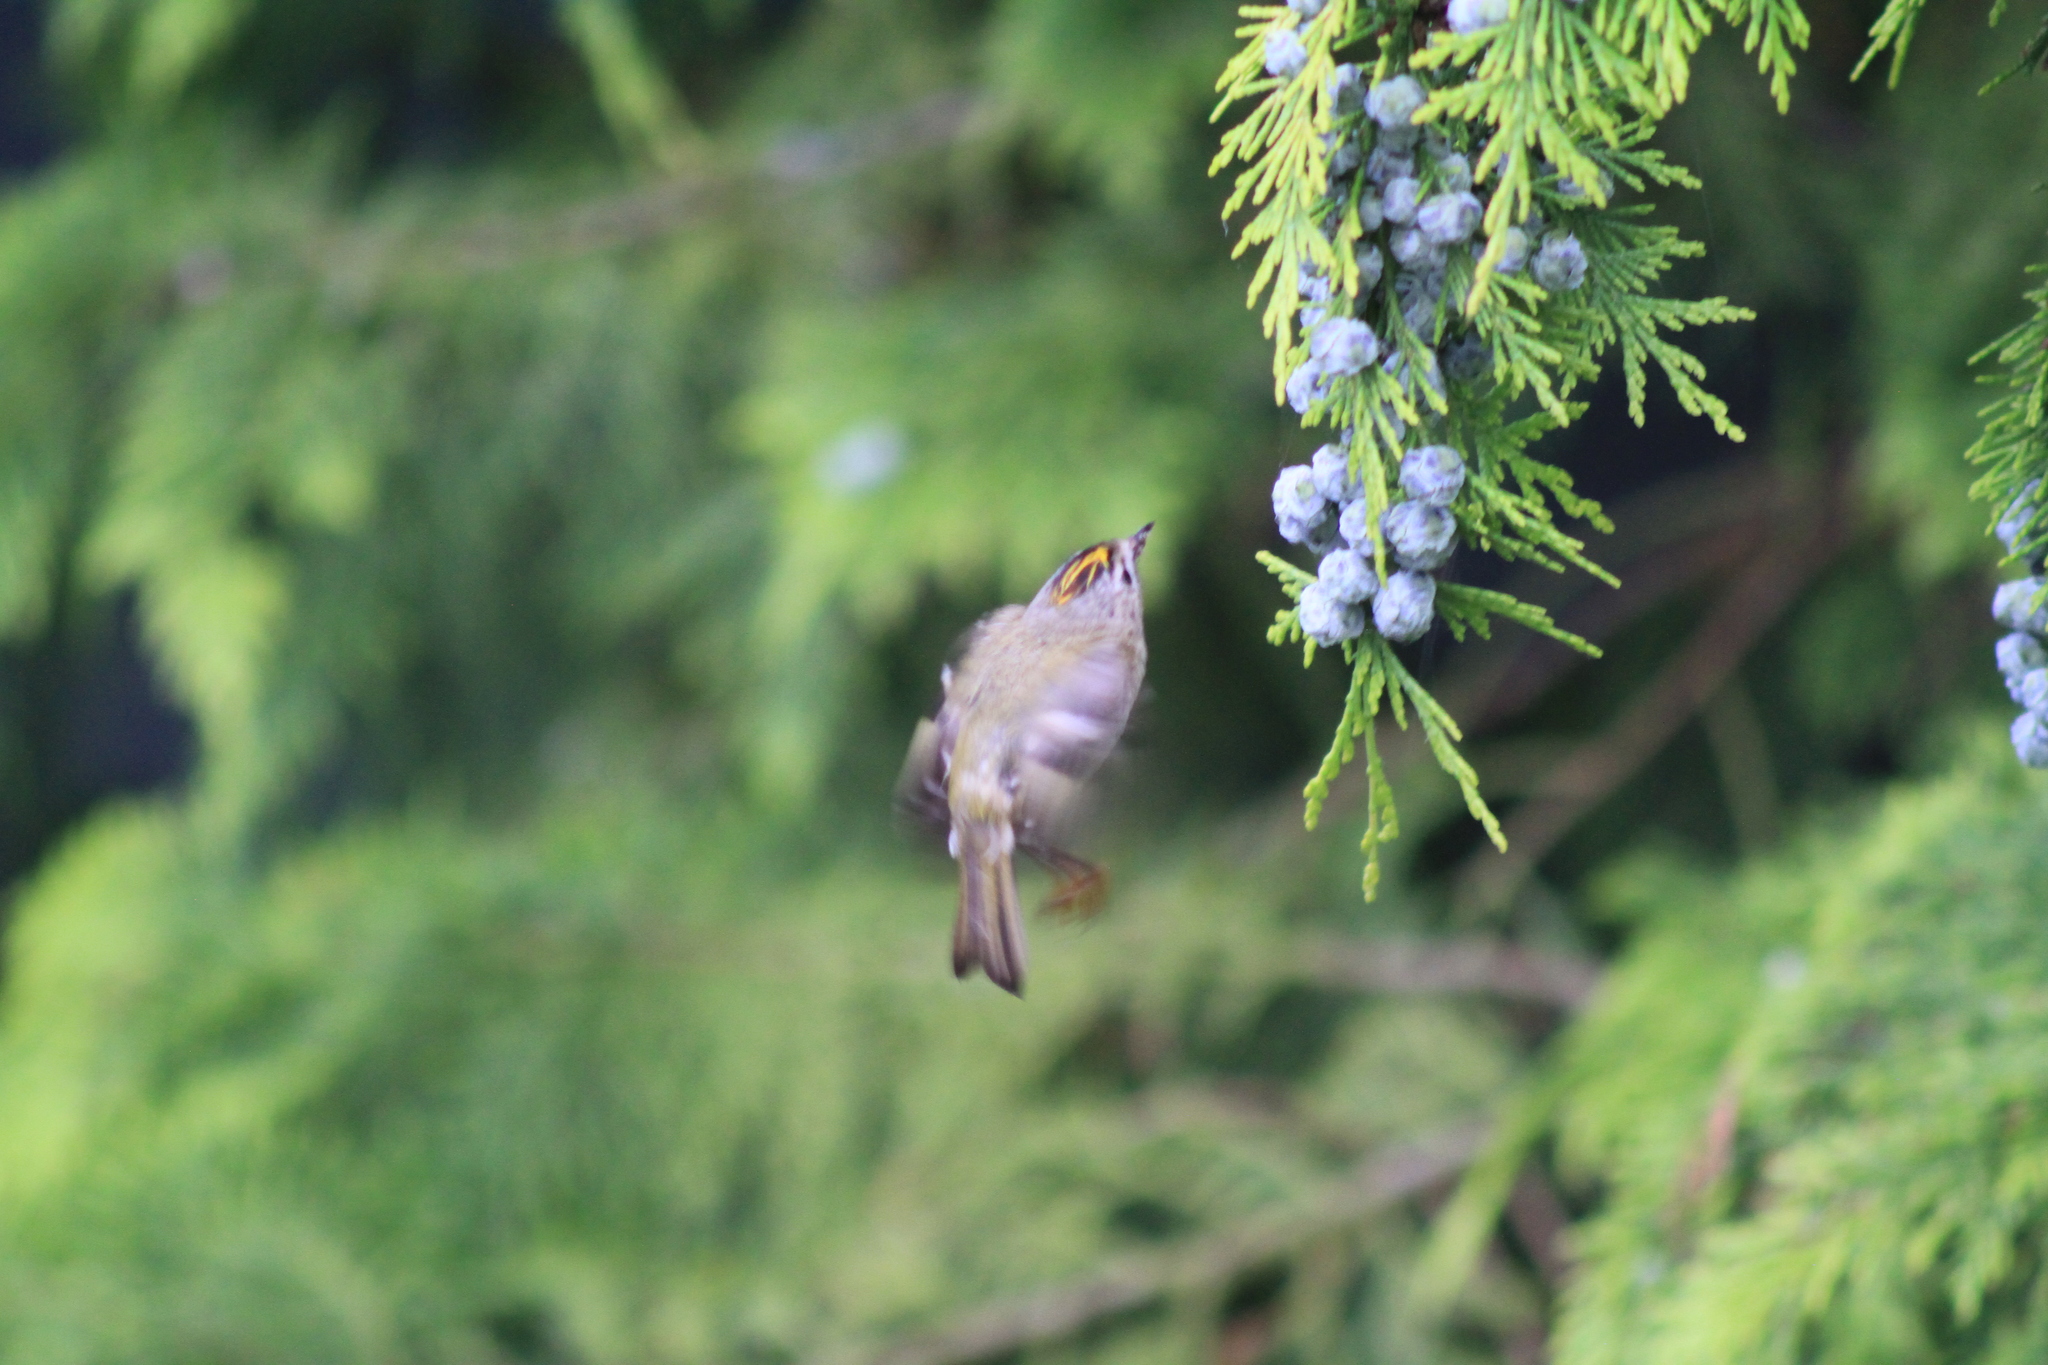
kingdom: Animalia
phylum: Chordata
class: Aves
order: Passeriformes
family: Regulidae
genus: Regulus
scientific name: Regulus regulus
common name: Goldcrest
